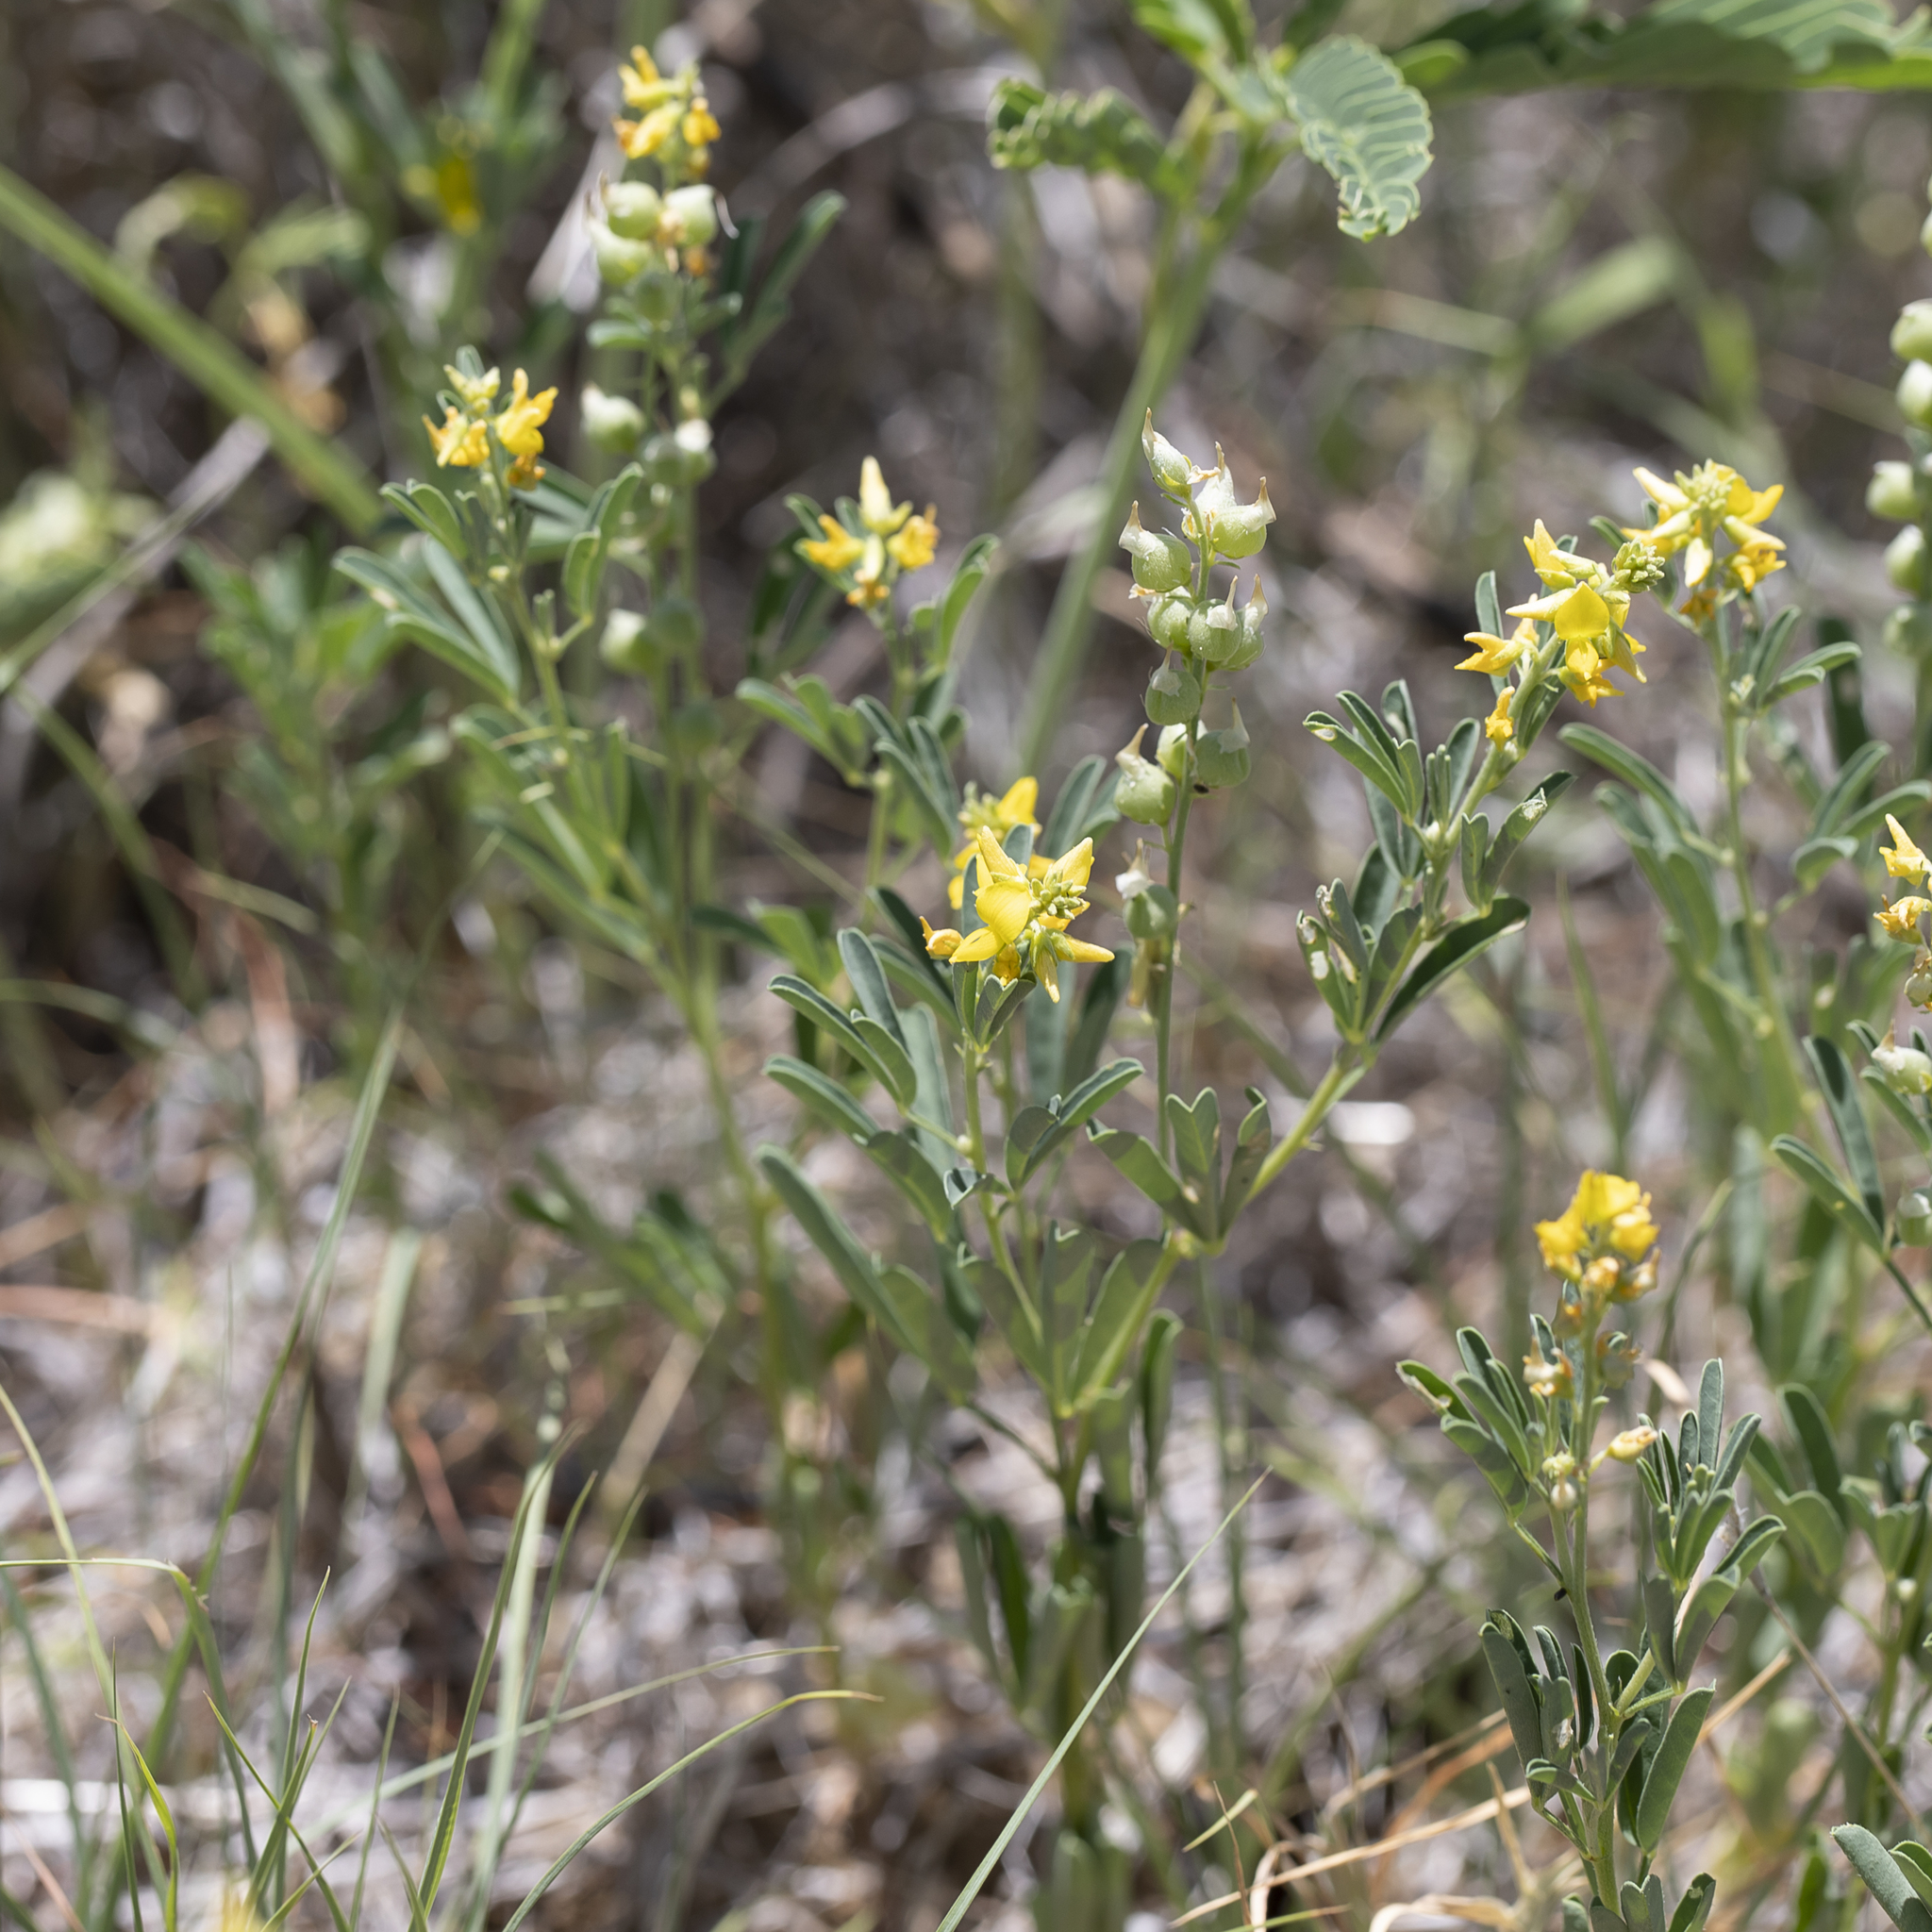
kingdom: Plantae
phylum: Tracheophyta
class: Magnoliopsida
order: Fabales
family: Fabaceae
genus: Crotalaria
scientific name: Crotalaria medicaginea
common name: Trefoil rattlepod
